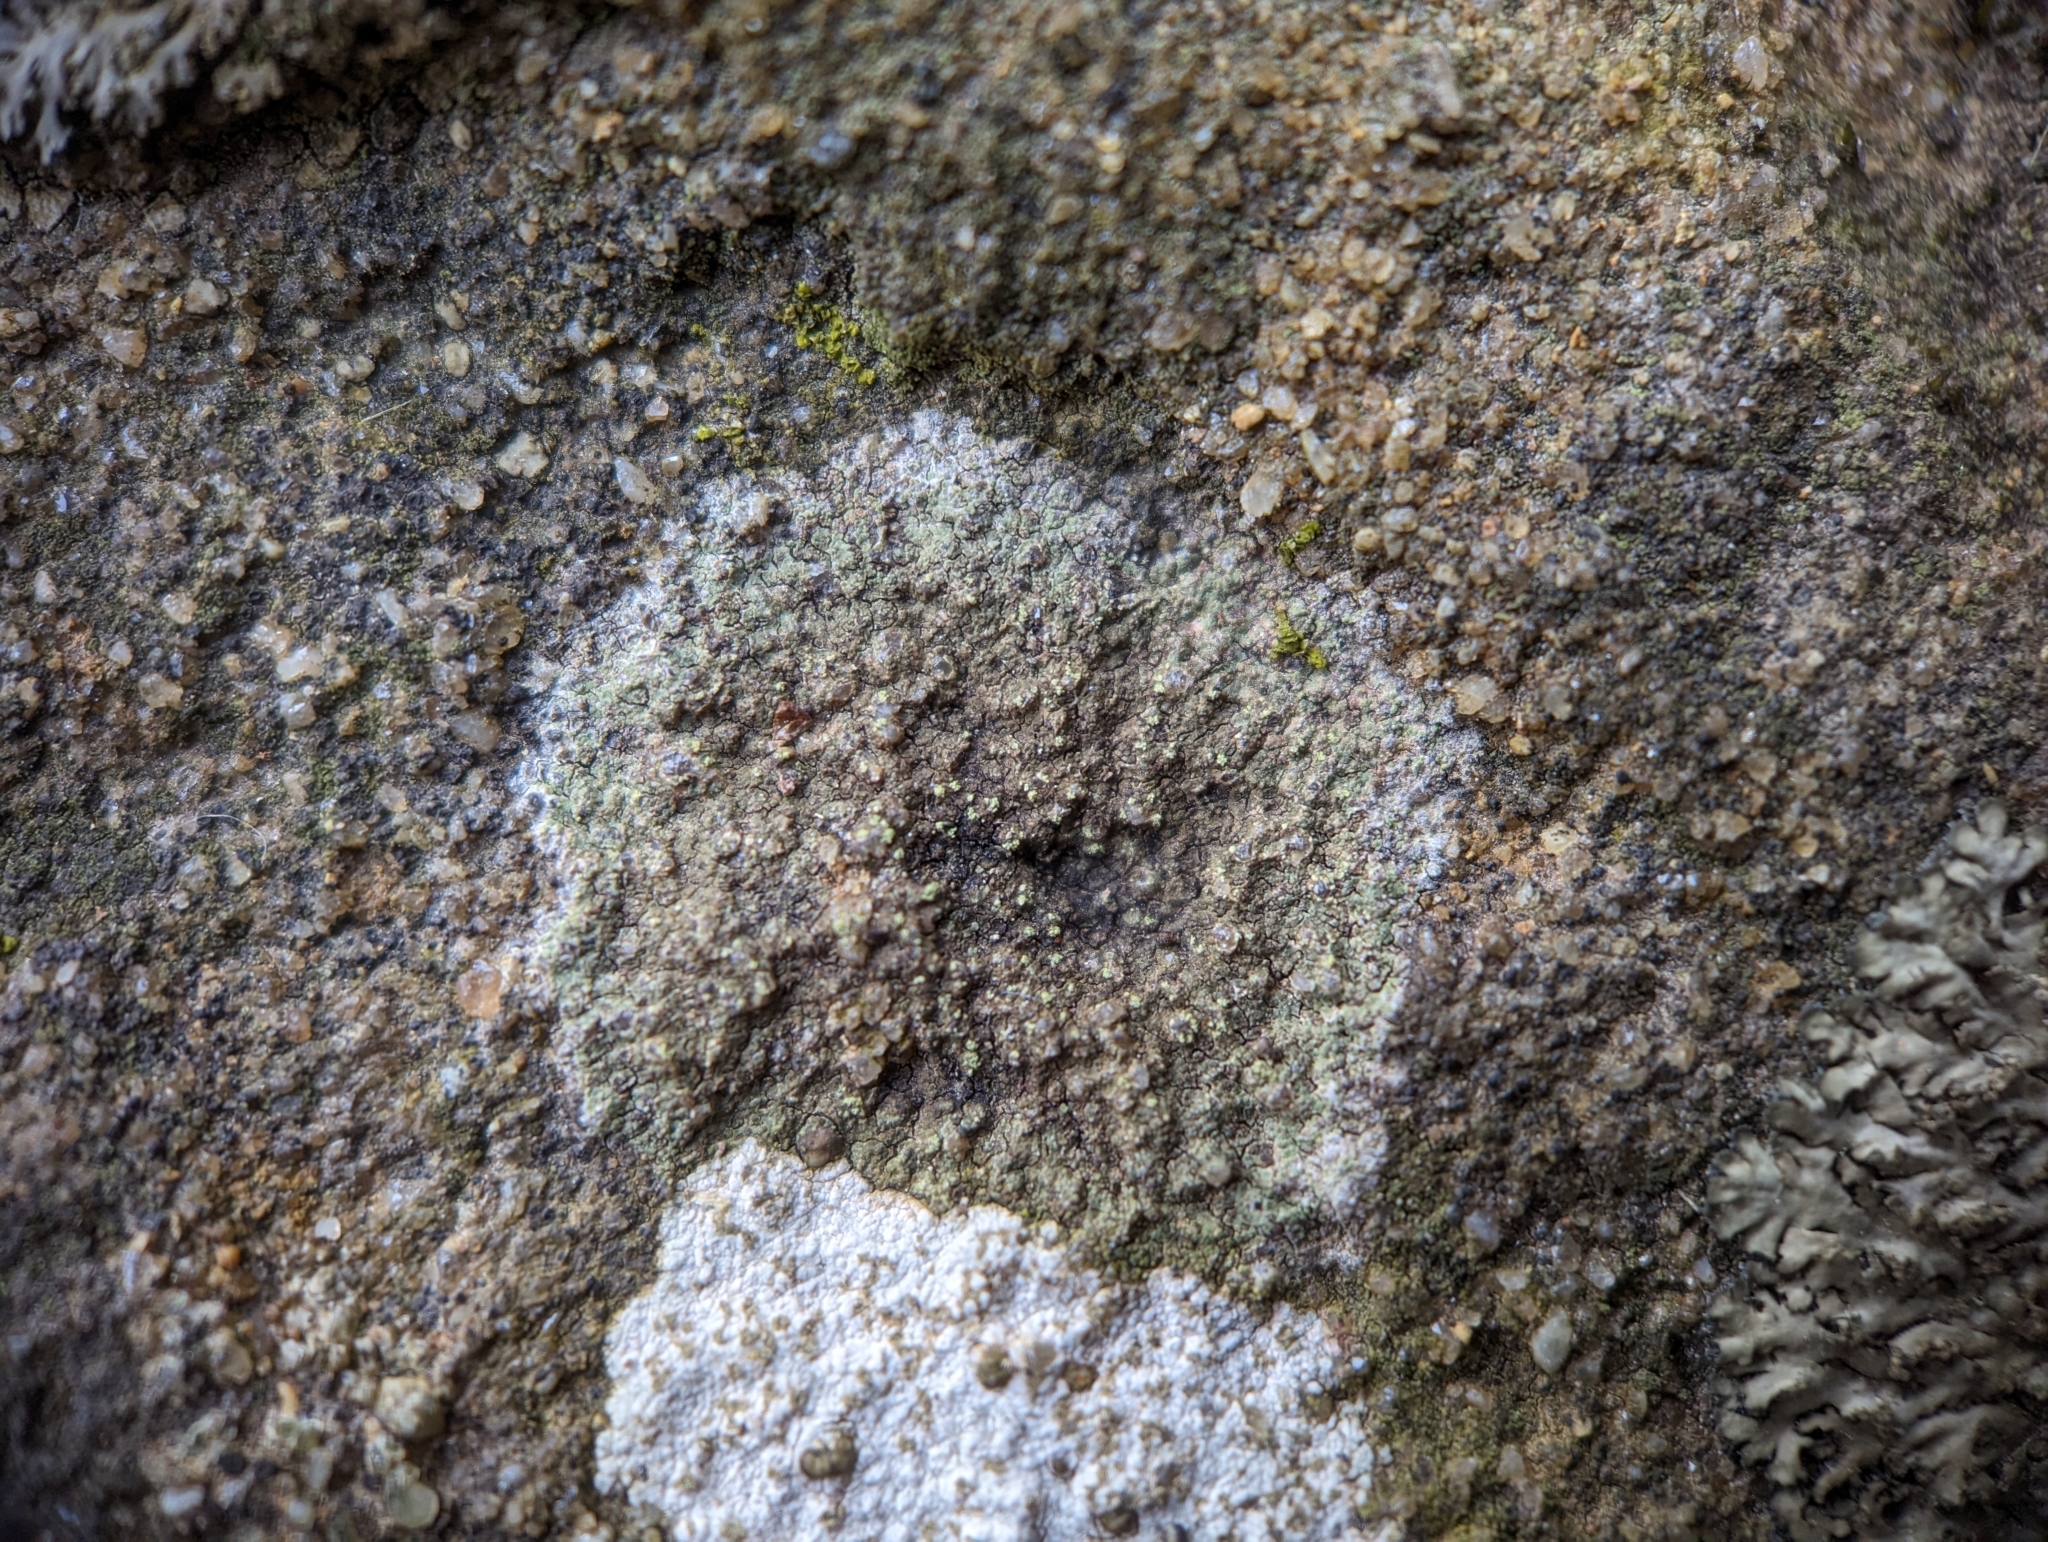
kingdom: Fungi
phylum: Ascomycota
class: Lecanoromycetes
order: Lecanorales
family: Ramalinaceae
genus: Bacidia
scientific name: Bacidia fuscoviridis
